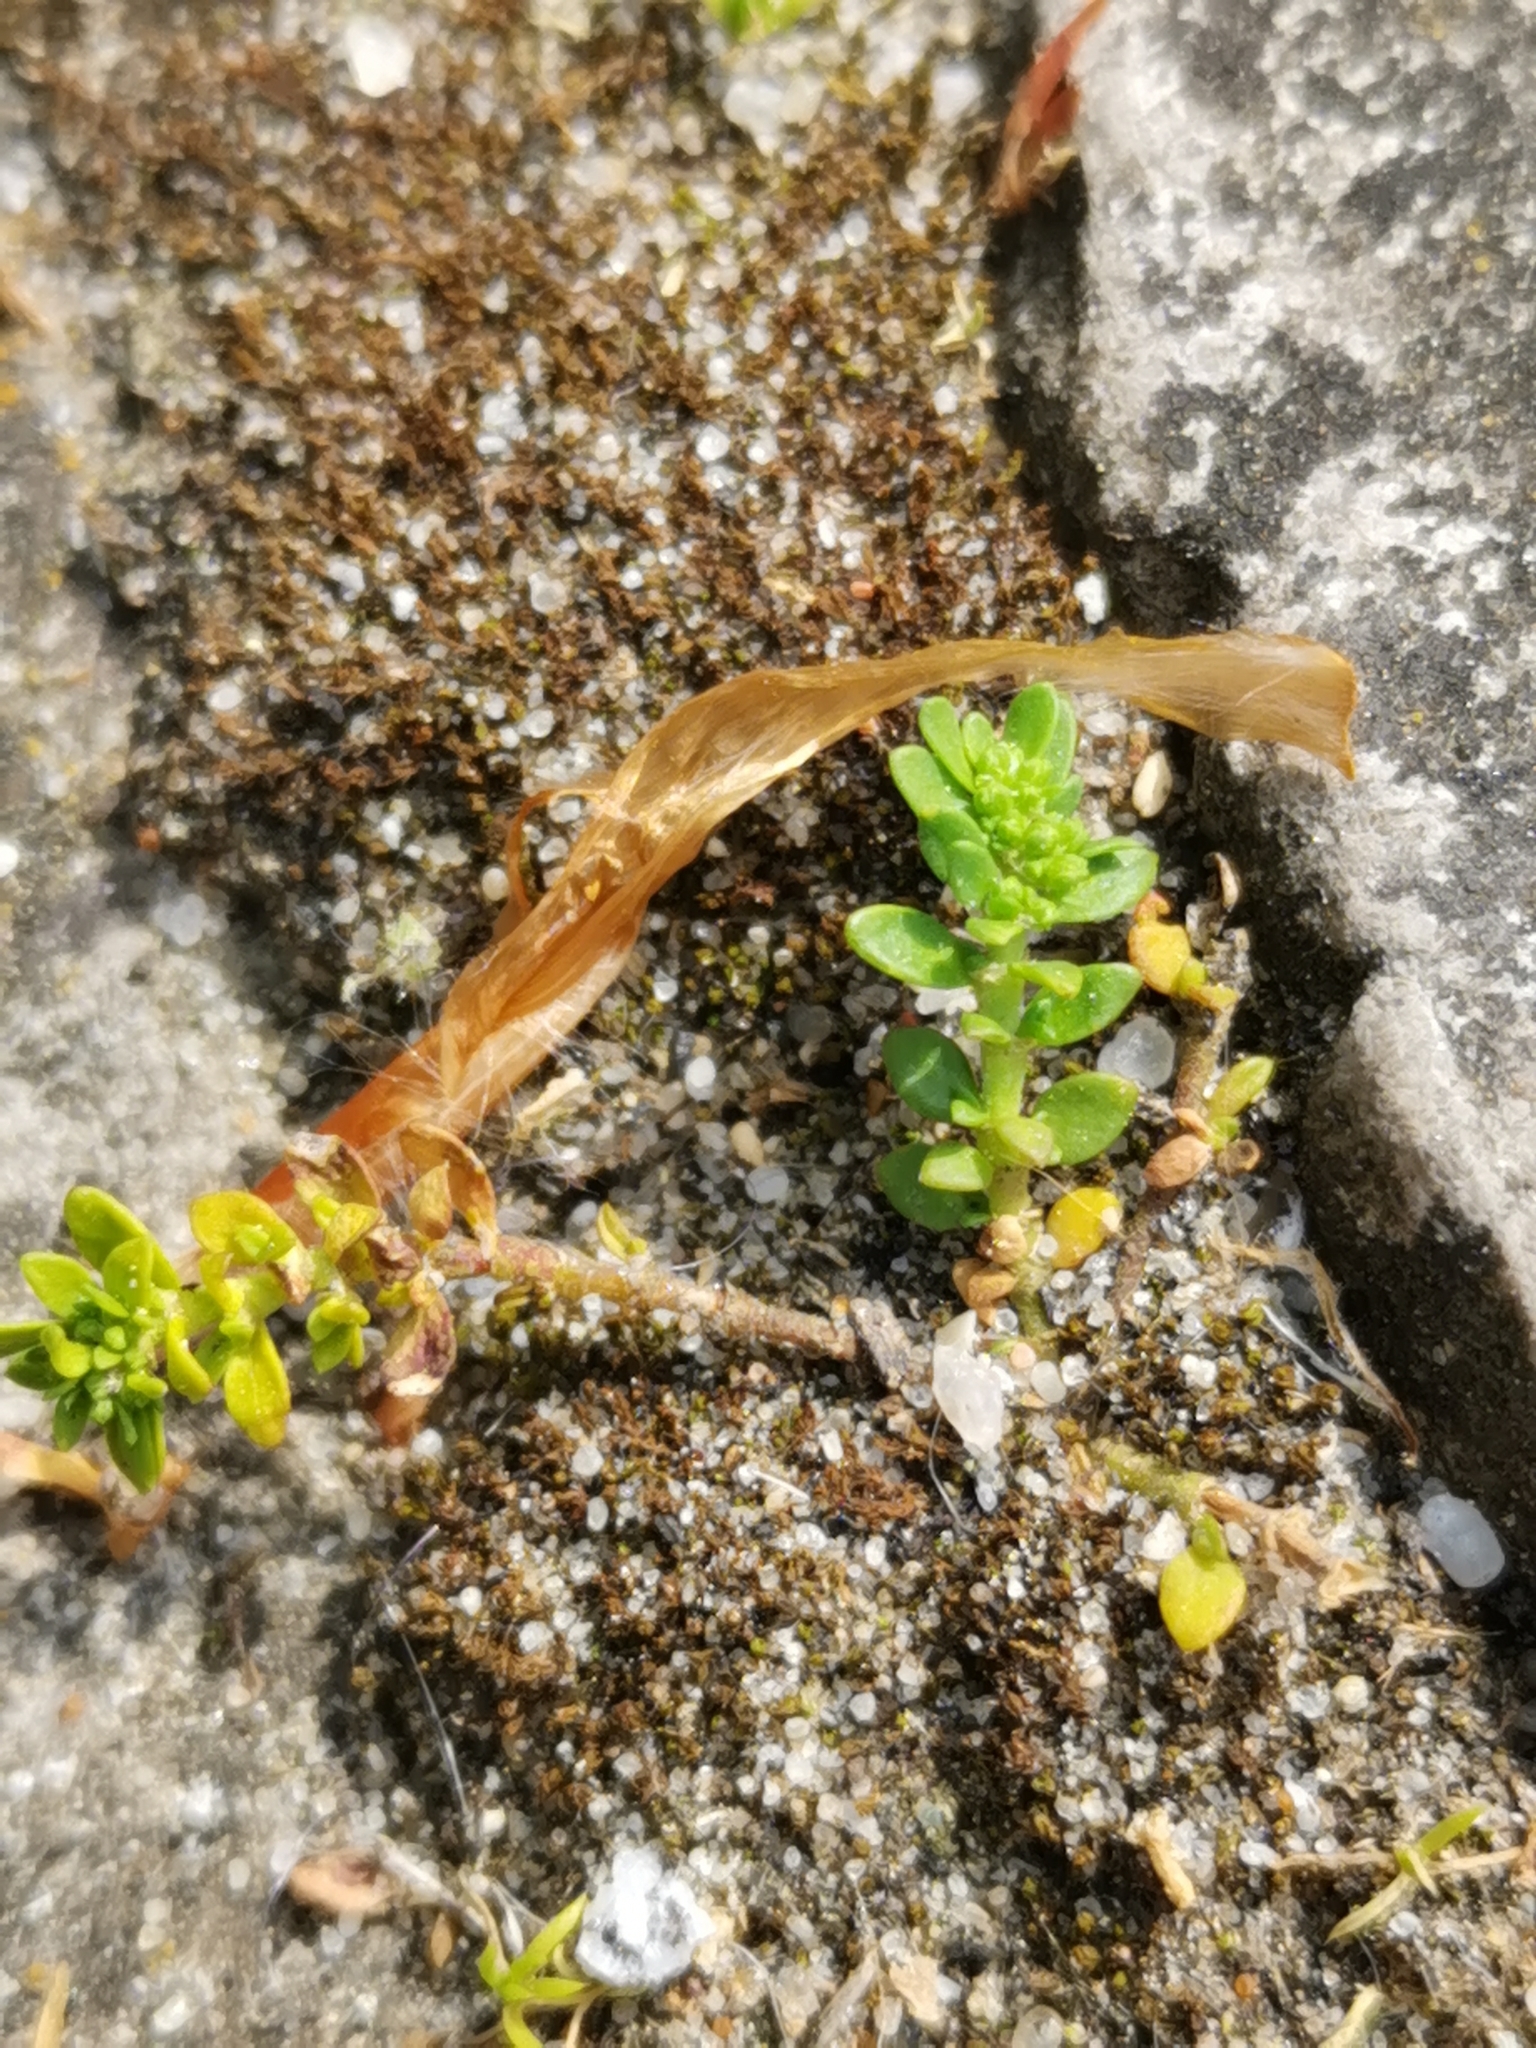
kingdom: Plantae
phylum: Tracheophyta
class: Magnoliopsida
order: Caryophyllales
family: Caryophyllaceae
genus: Herniaria
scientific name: Herniaria glabra
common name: Smooth rupturewort
